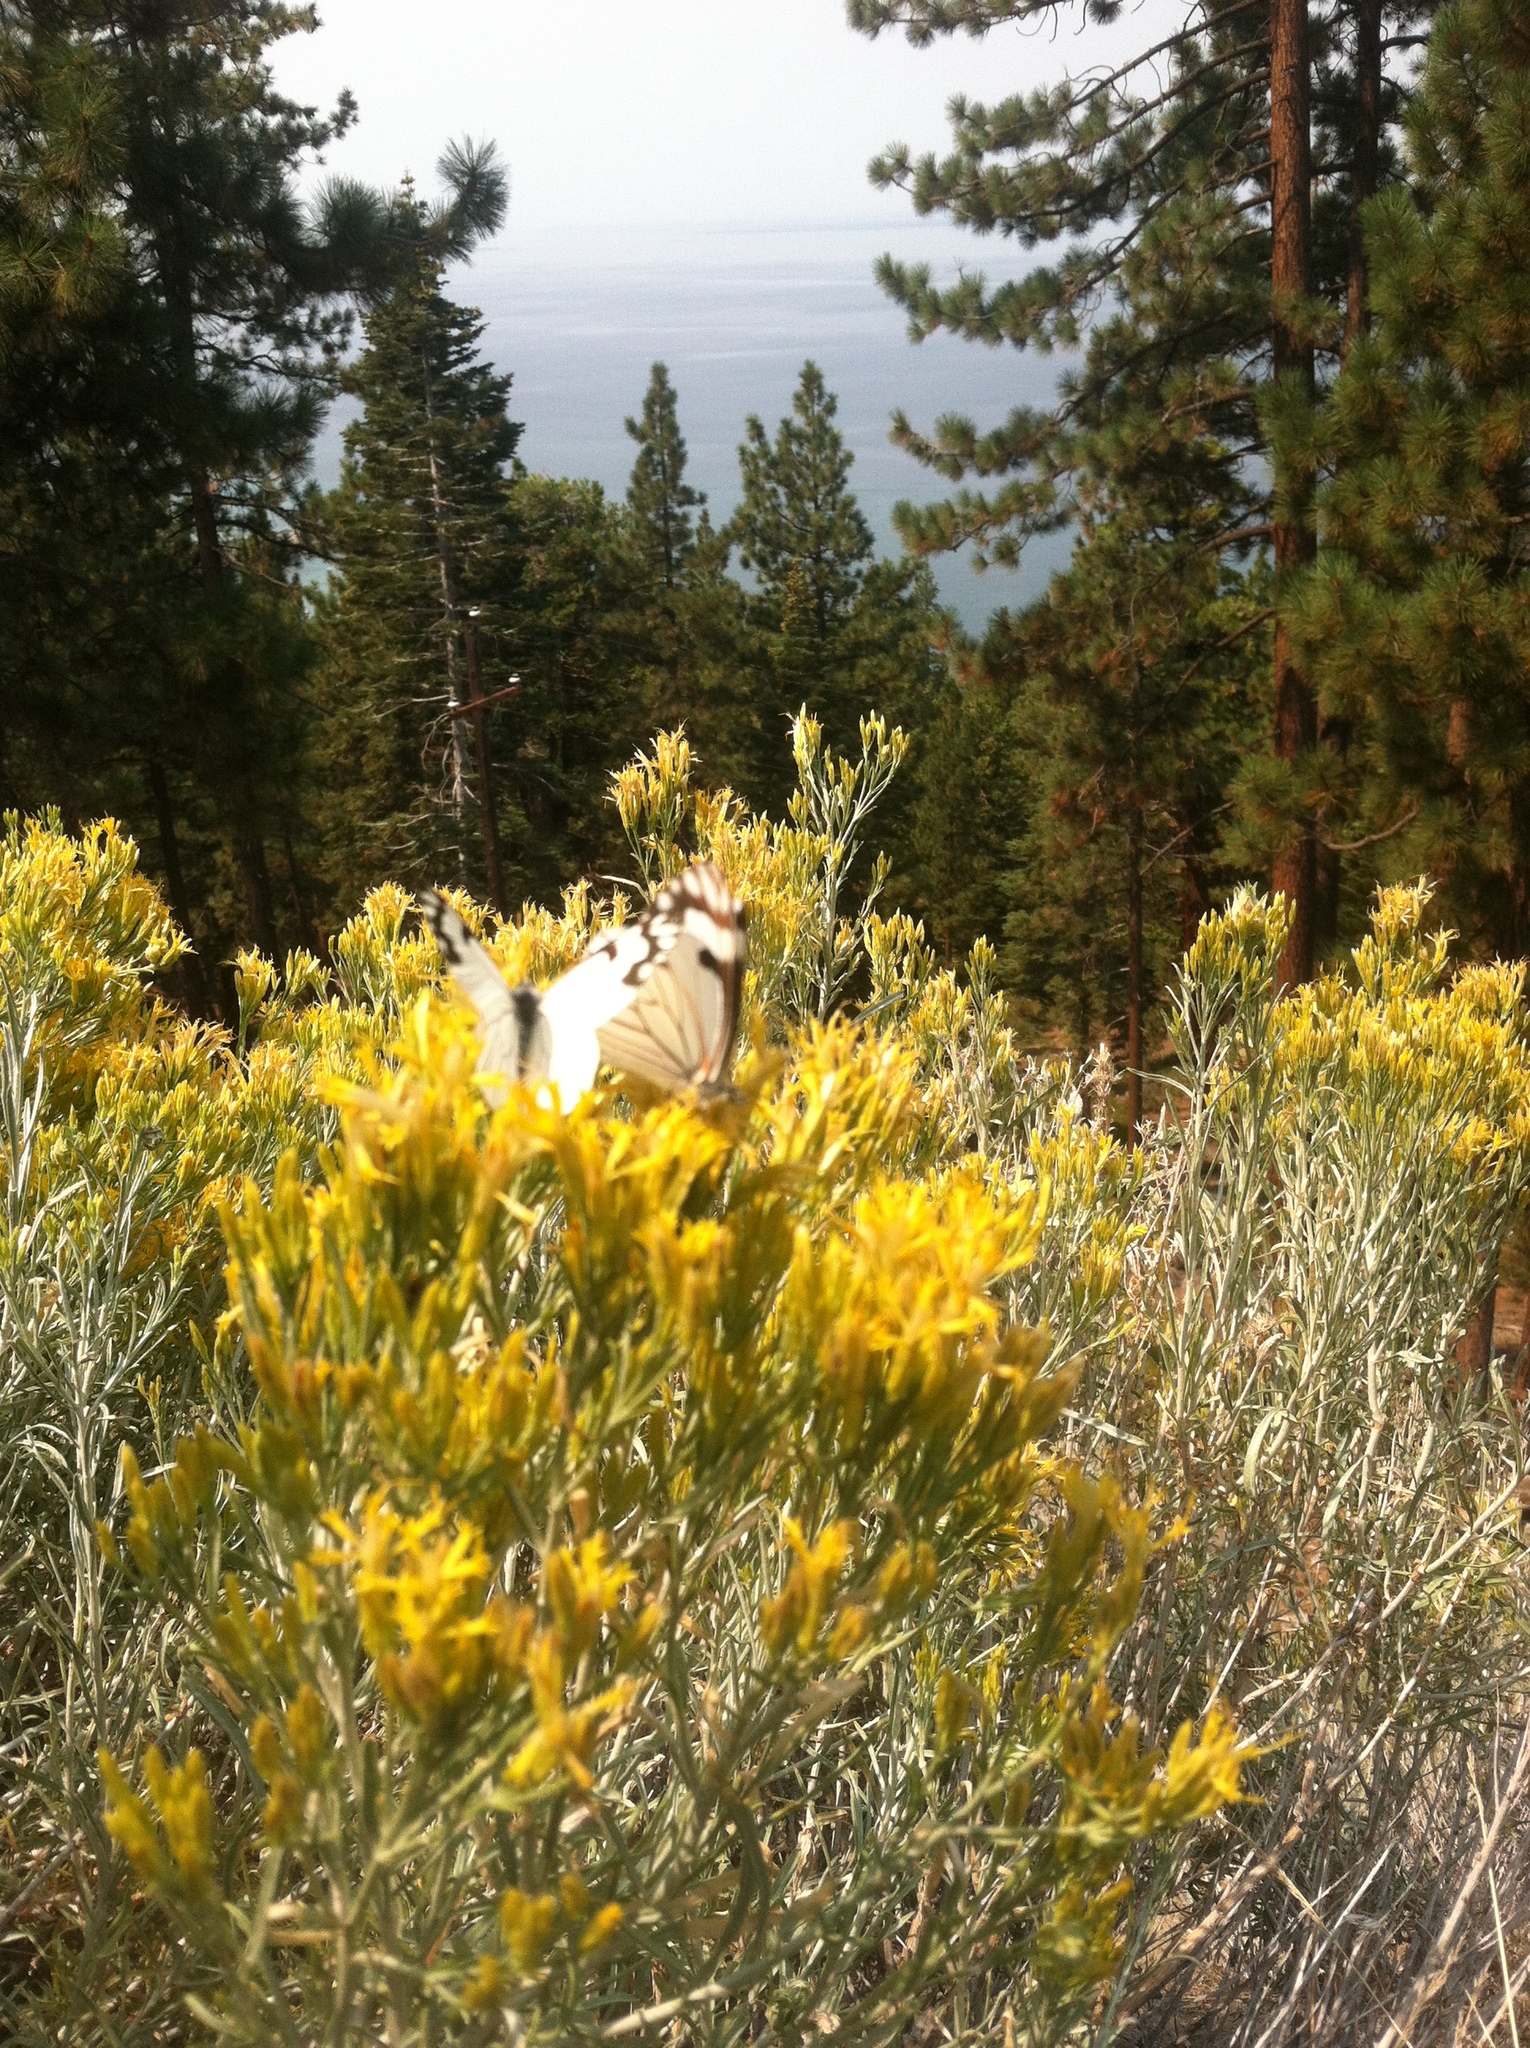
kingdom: Animalia
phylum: Arthropoda
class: Insecta
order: Lepidoptera
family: Pieridae
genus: Neophasia
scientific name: Neophasia menapia
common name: Pine white
